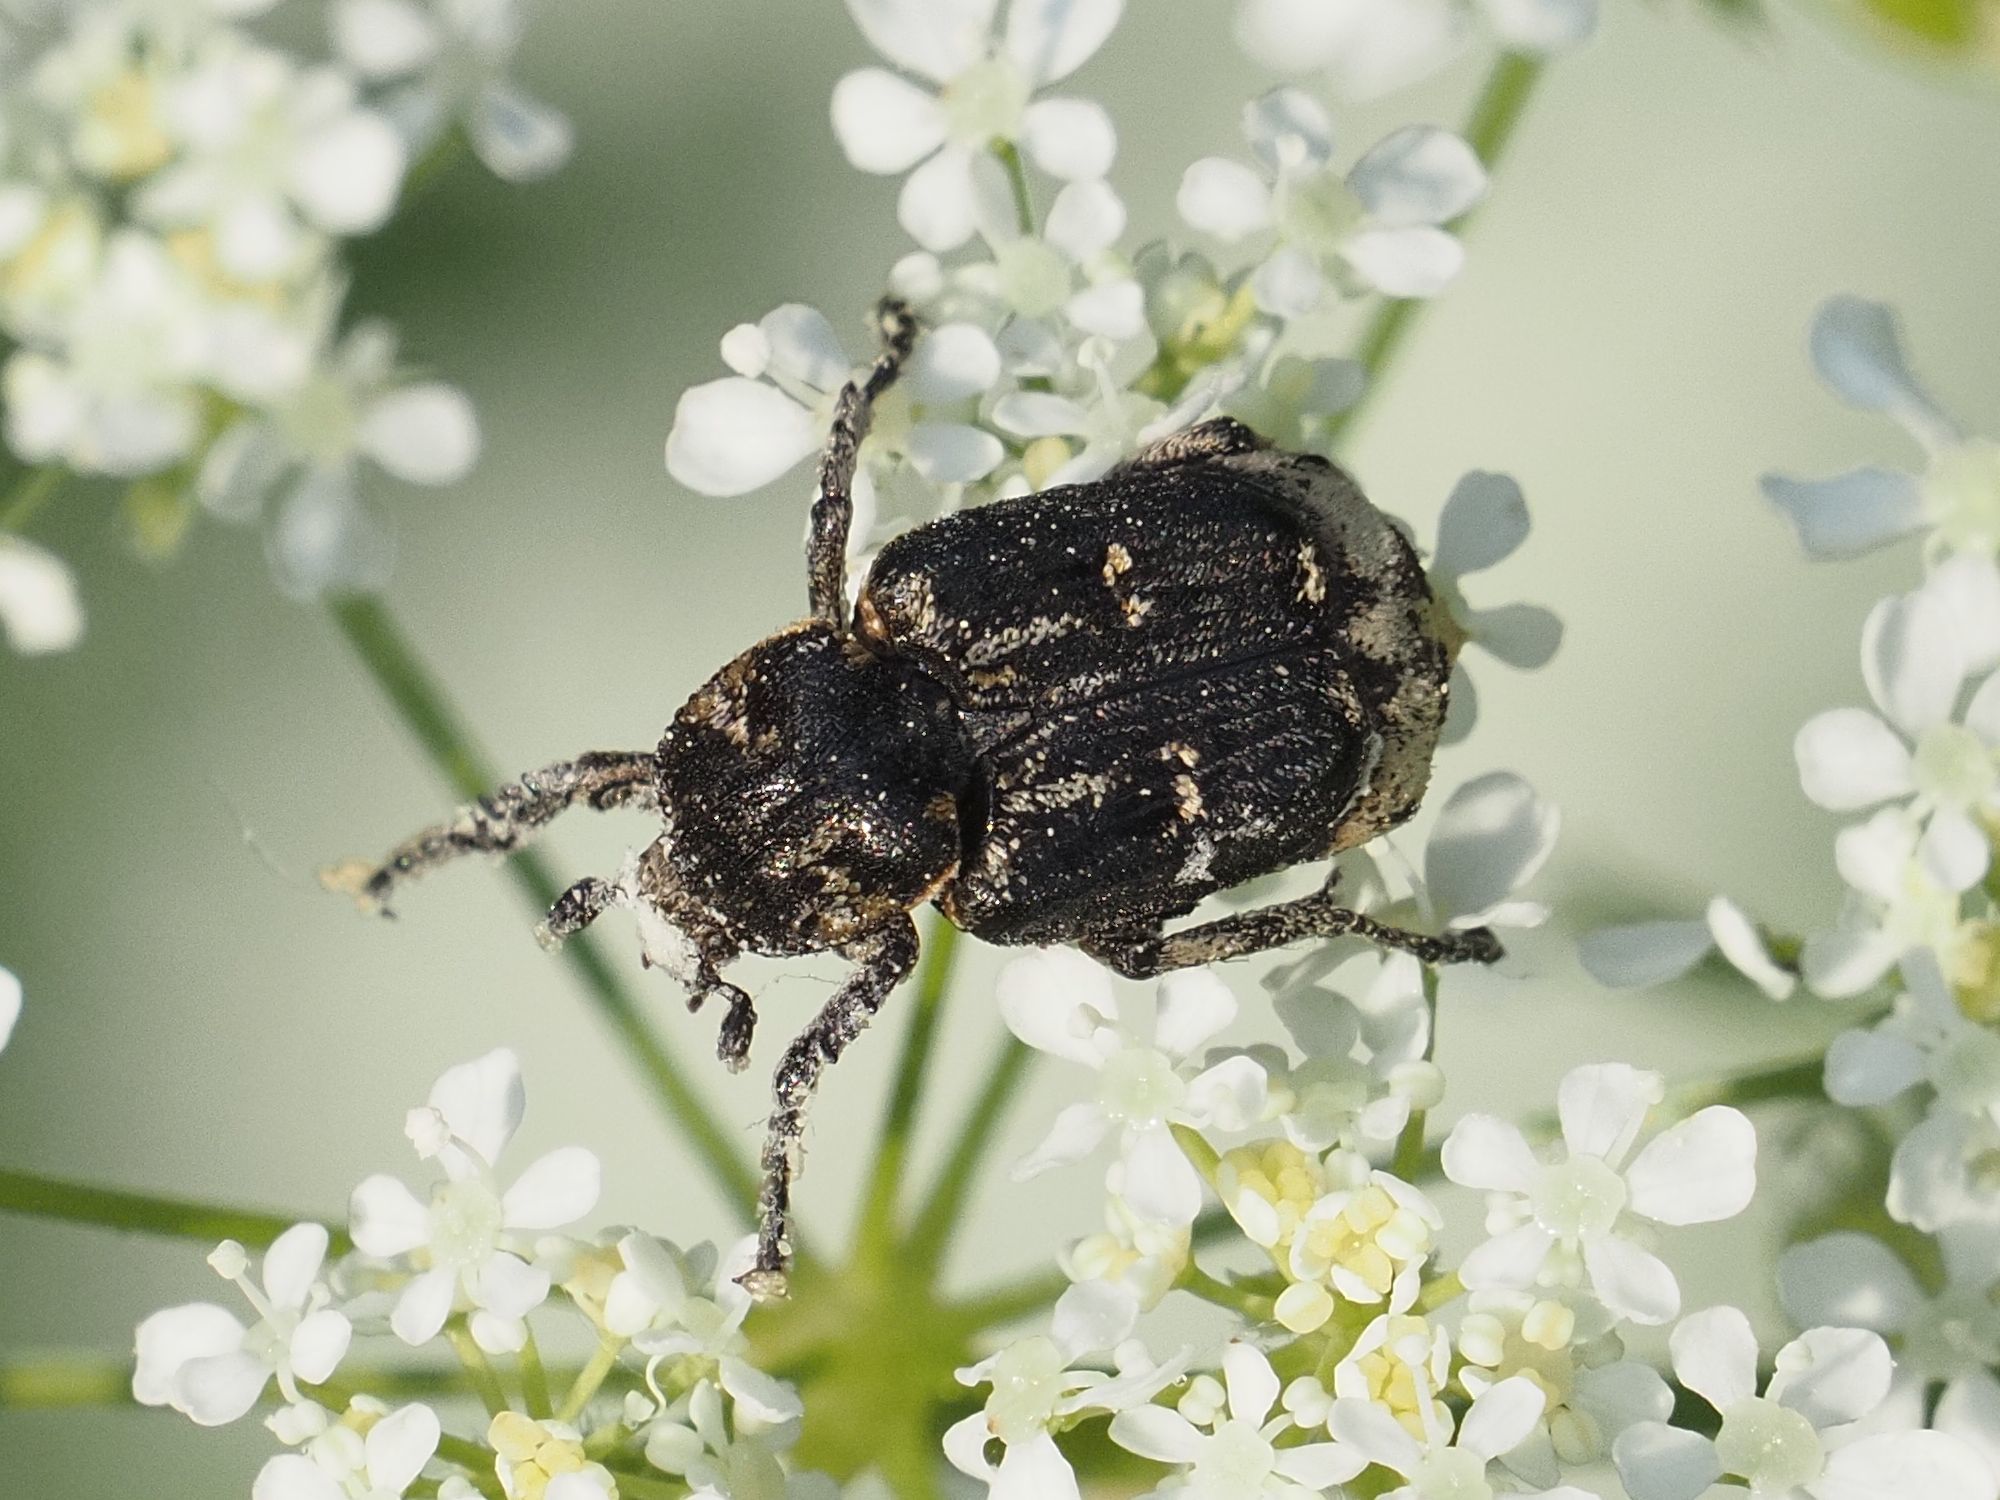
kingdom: Animalia
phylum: Arthropoda
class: Insecta
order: Coleoptera
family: Scarabaeidae
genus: Valgus
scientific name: Valgus hemipterus
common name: Bug flower chafer
